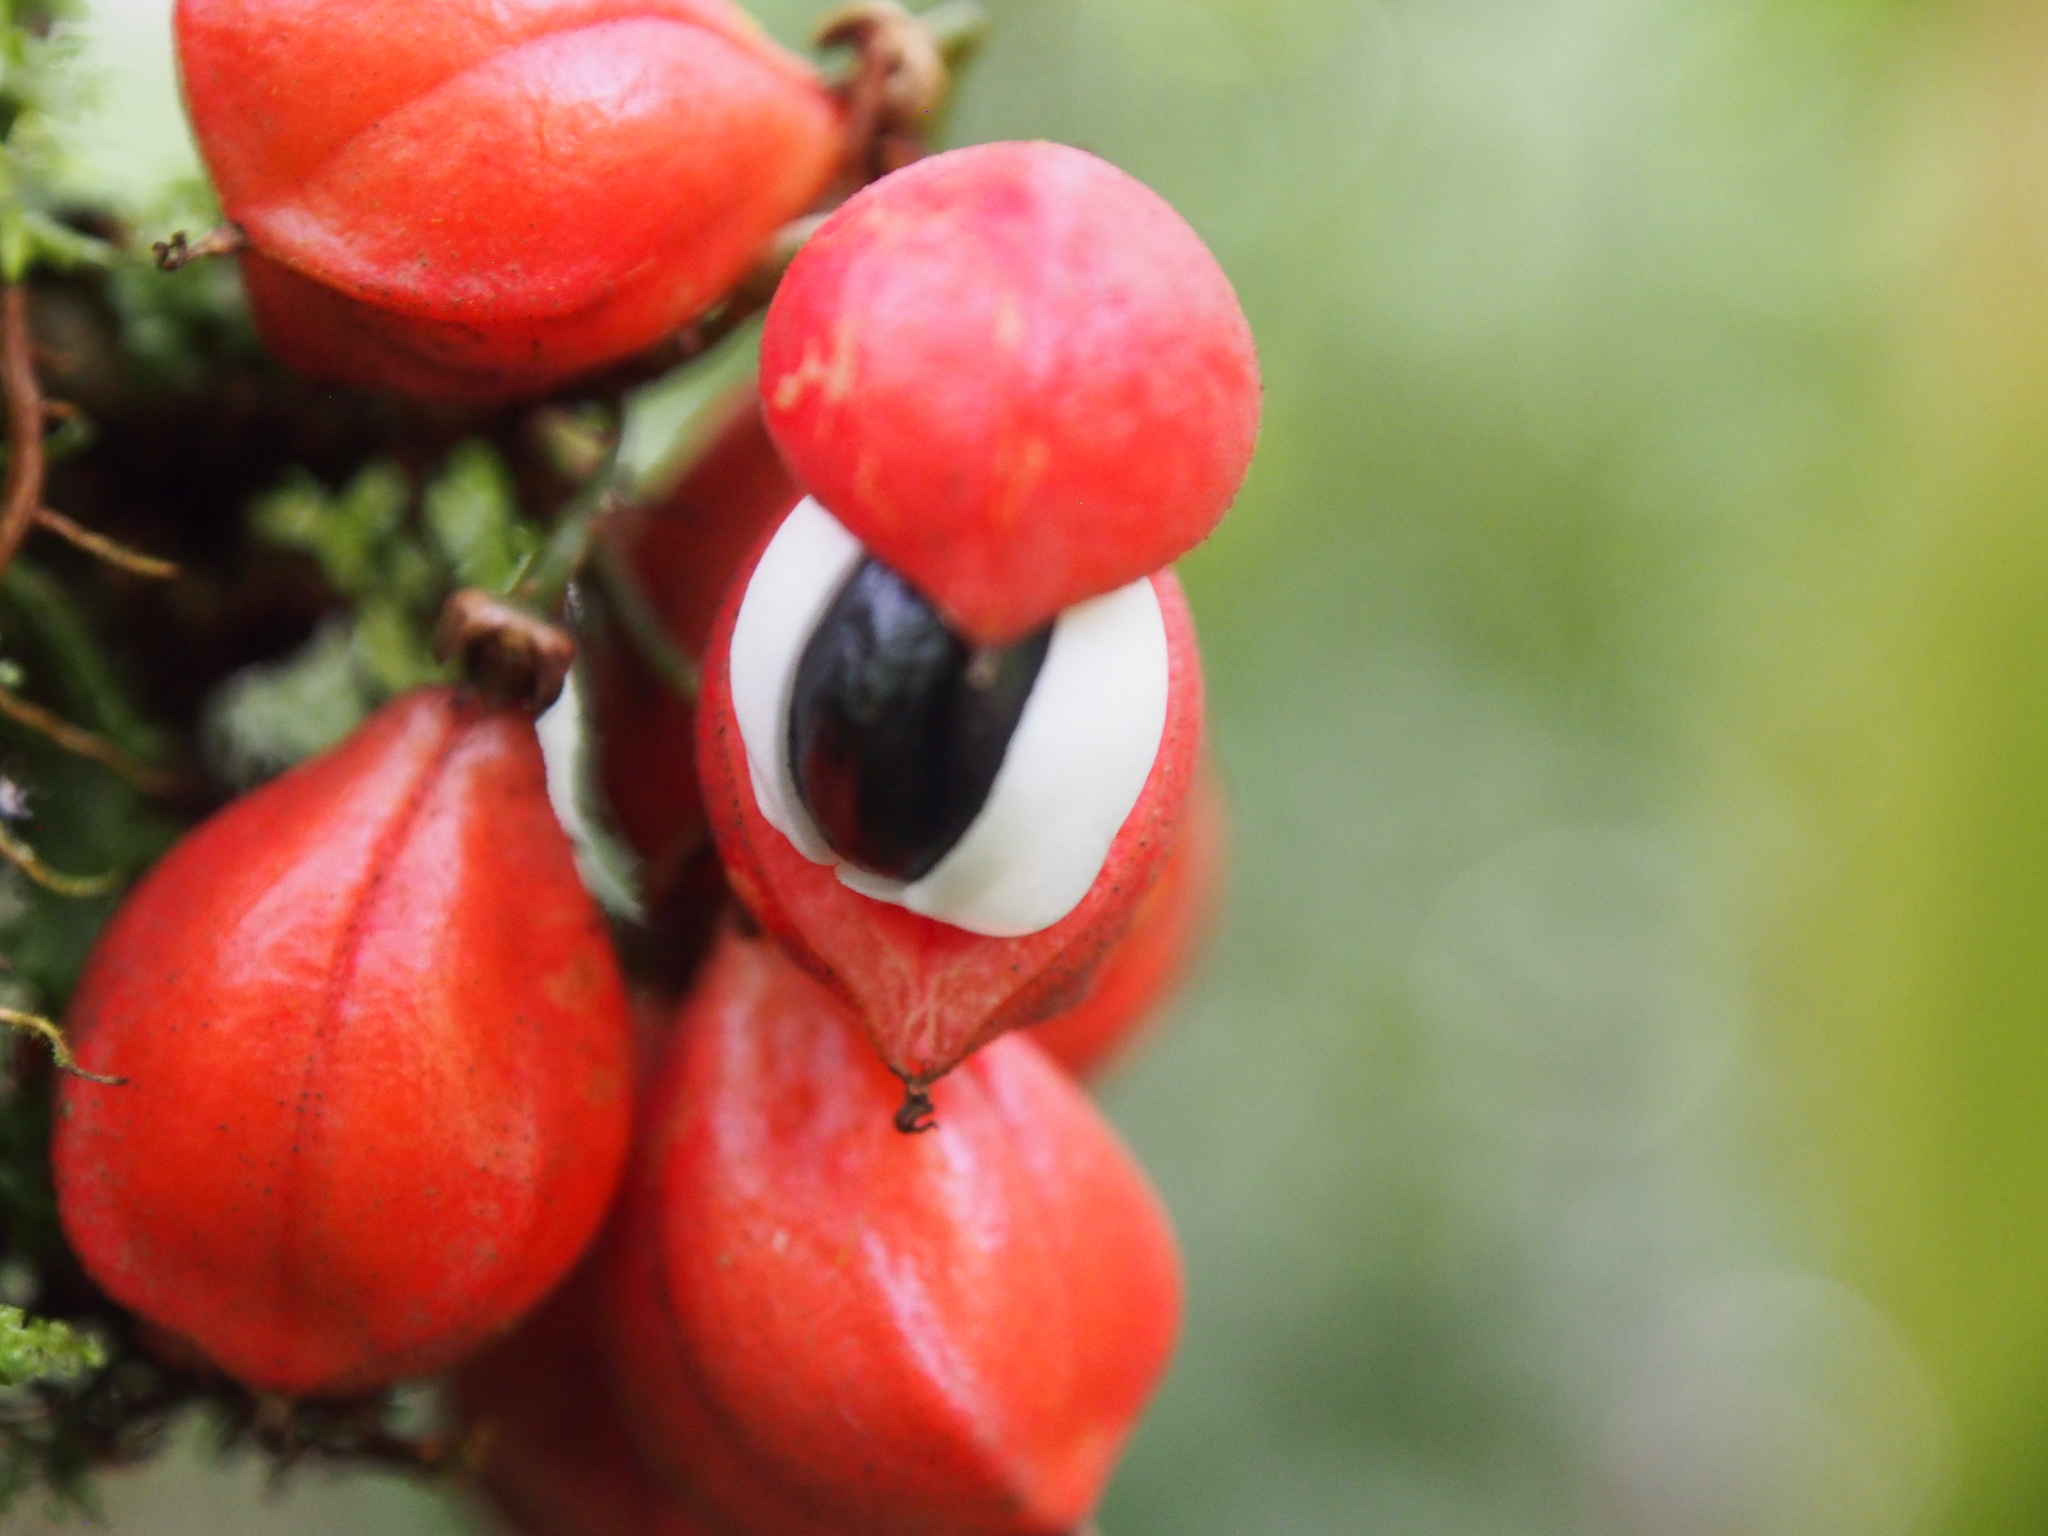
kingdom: Plantae
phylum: Tracheophyta
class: Magnoliopsida
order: Sapindales
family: Sapindaceae
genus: Paullinia
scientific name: Paullinia alata
